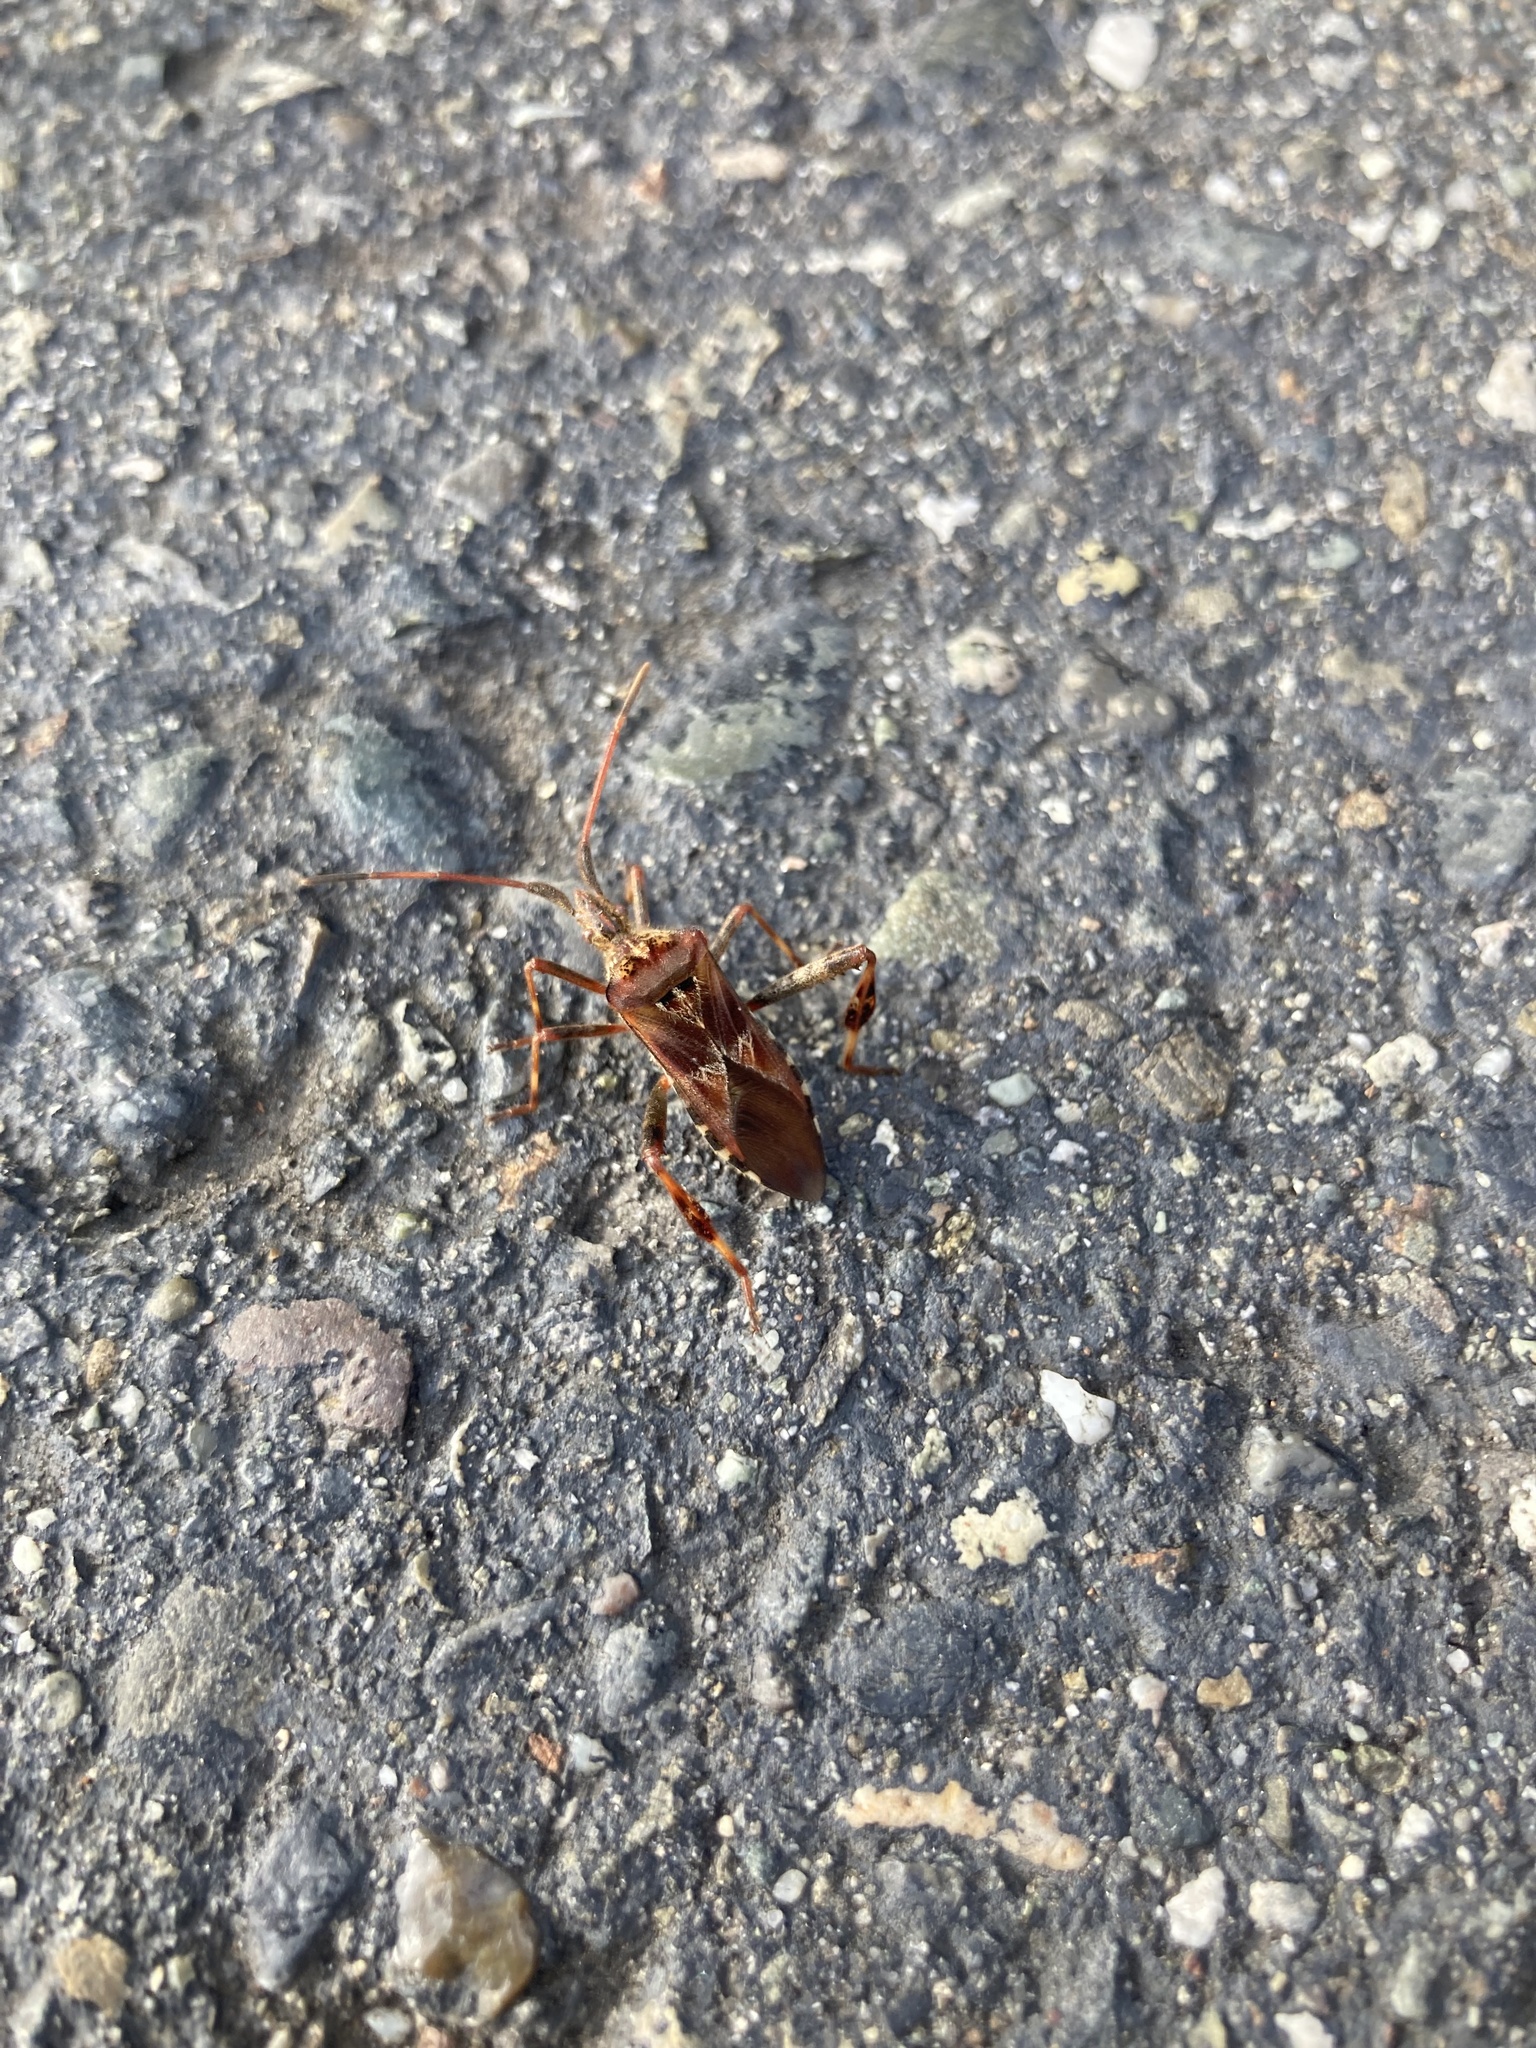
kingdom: Animalia
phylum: Arthropoda
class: Insecta
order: Hemiptera
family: Coreidae
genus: Leptoglossus
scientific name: Leptoglossus occidentalis
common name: Western conifer-seed bug
